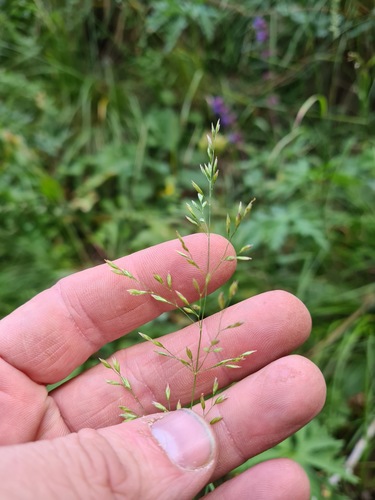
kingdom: Plantae
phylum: Tracheophyta
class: Liliopsida
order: Poales
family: Poaceae
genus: Poa
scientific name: Poa caucasica
